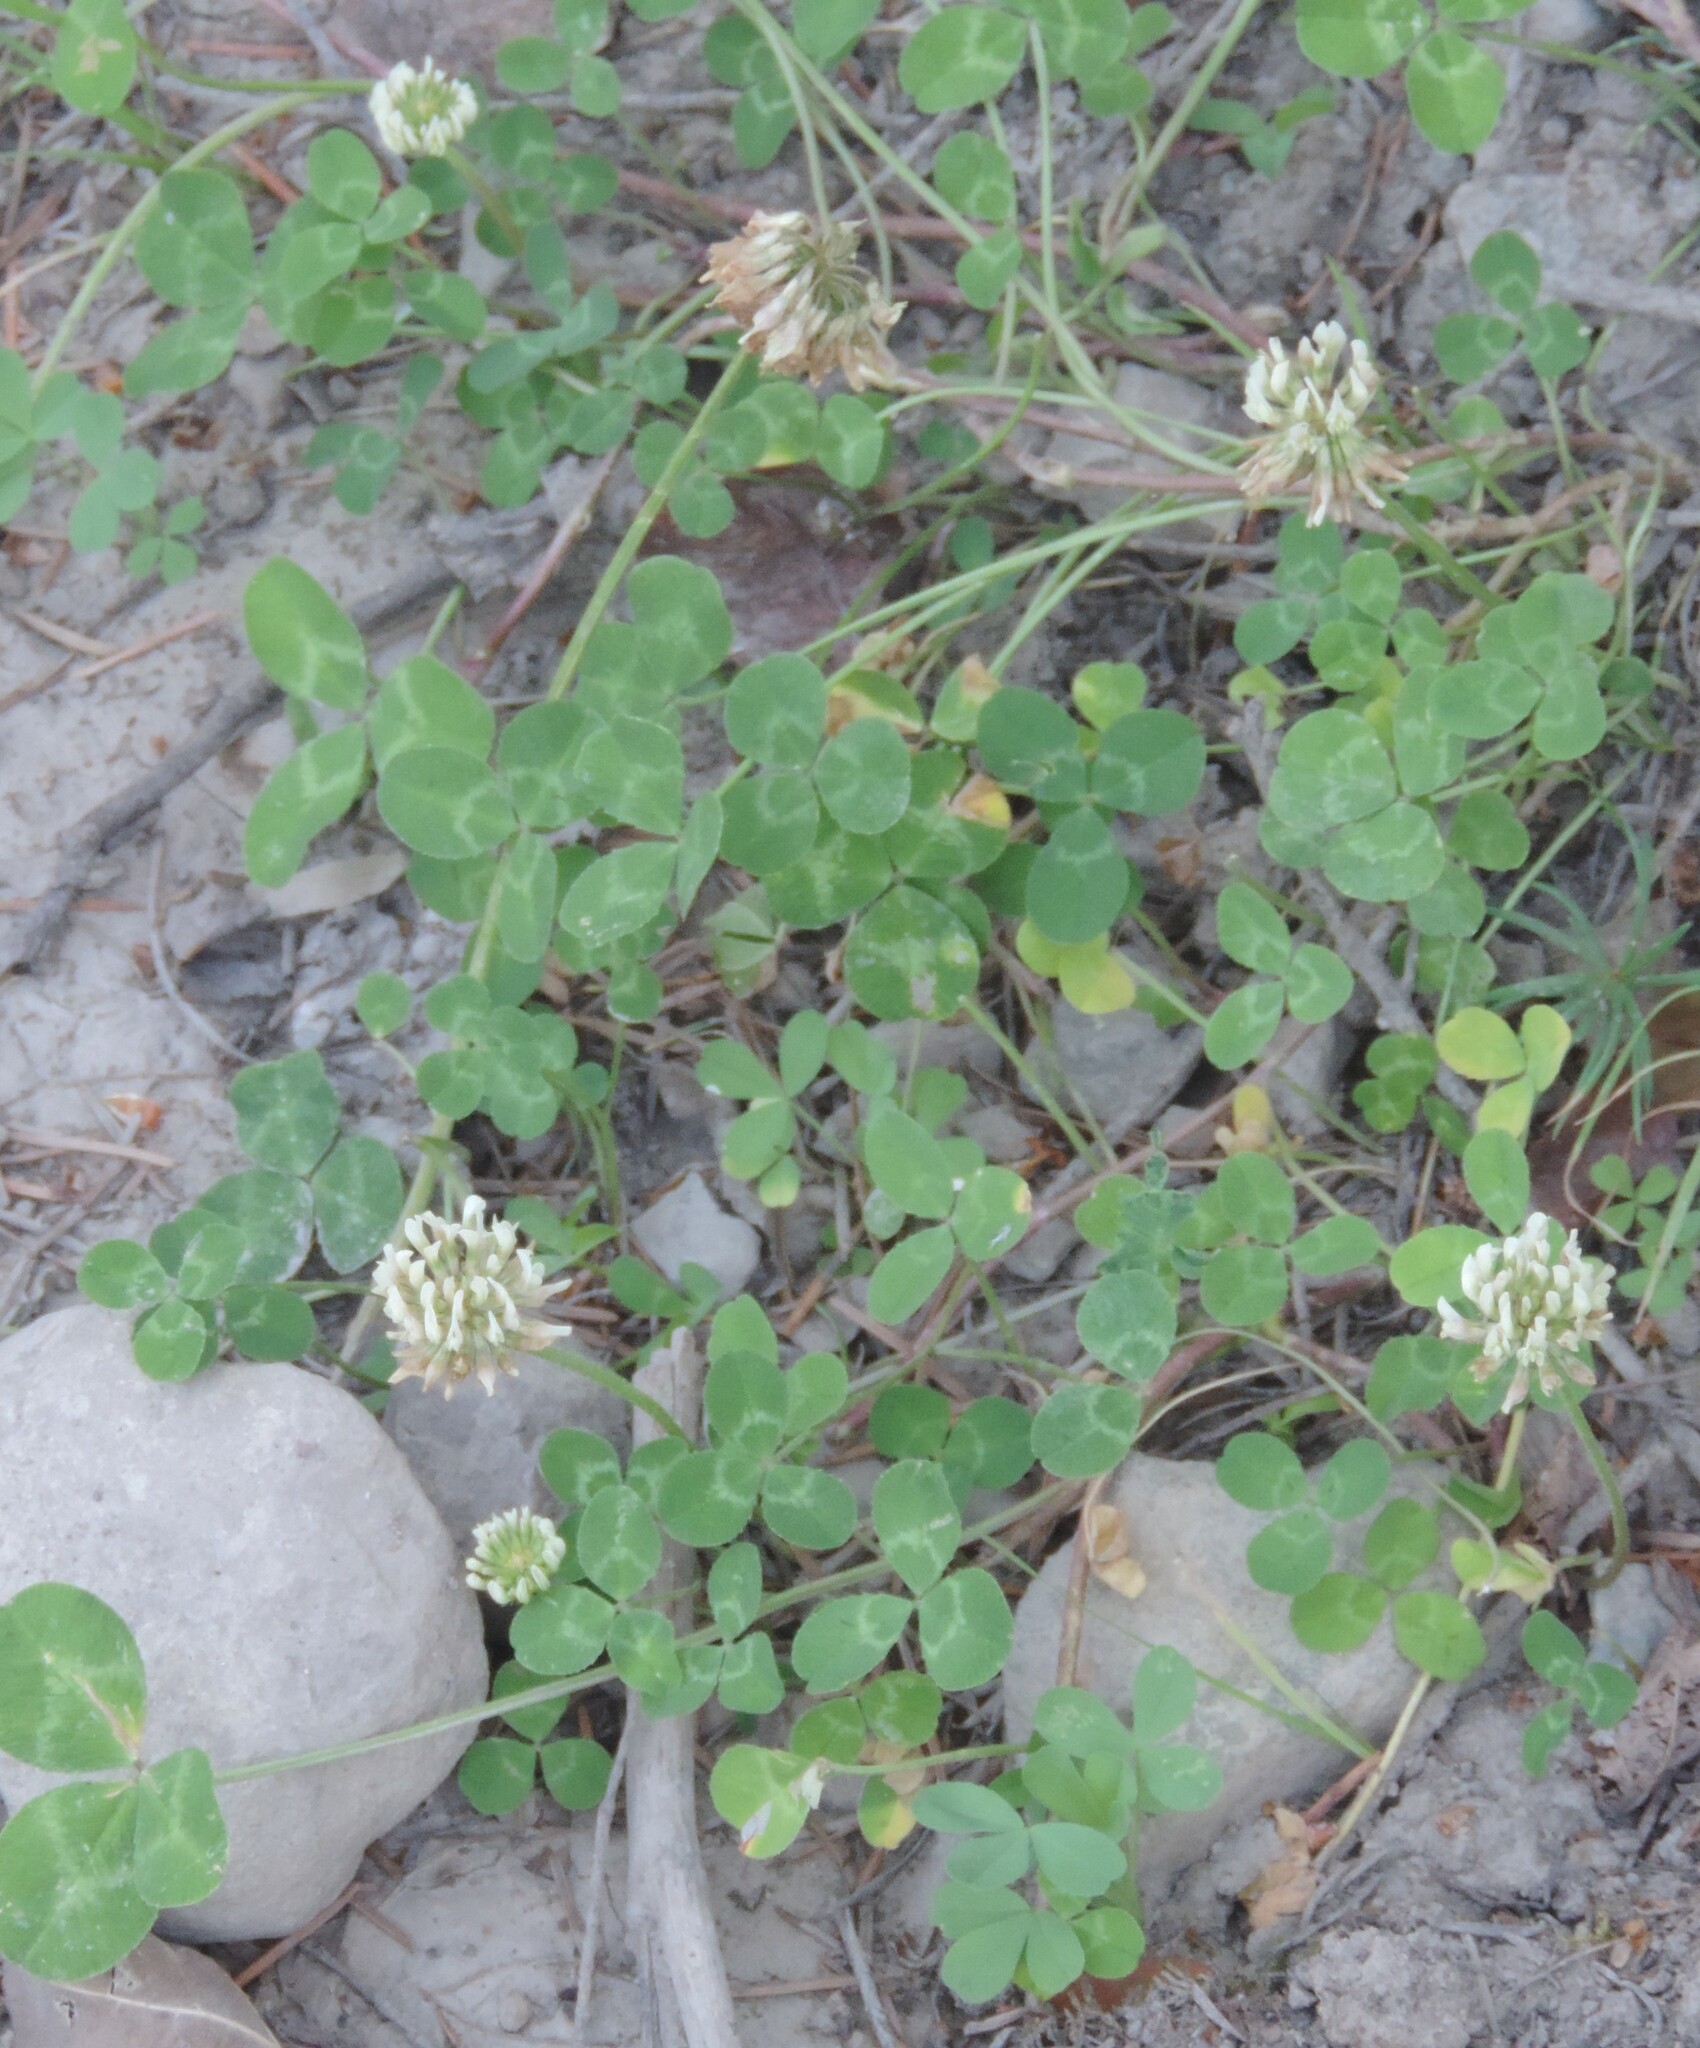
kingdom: Plantae
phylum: Tracheophyta
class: Magnoliopsida
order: Fabales
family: Fabaceae
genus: Trifolium
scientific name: Trifolium repens
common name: White clover
